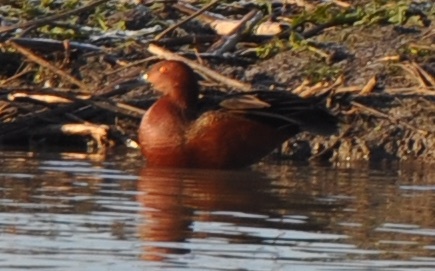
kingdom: Animalia
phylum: Chordata
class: Aves
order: Anseriformes
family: Anatidae
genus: Spatula
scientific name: Spatula cyanoptera
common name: Cinnamon teal
